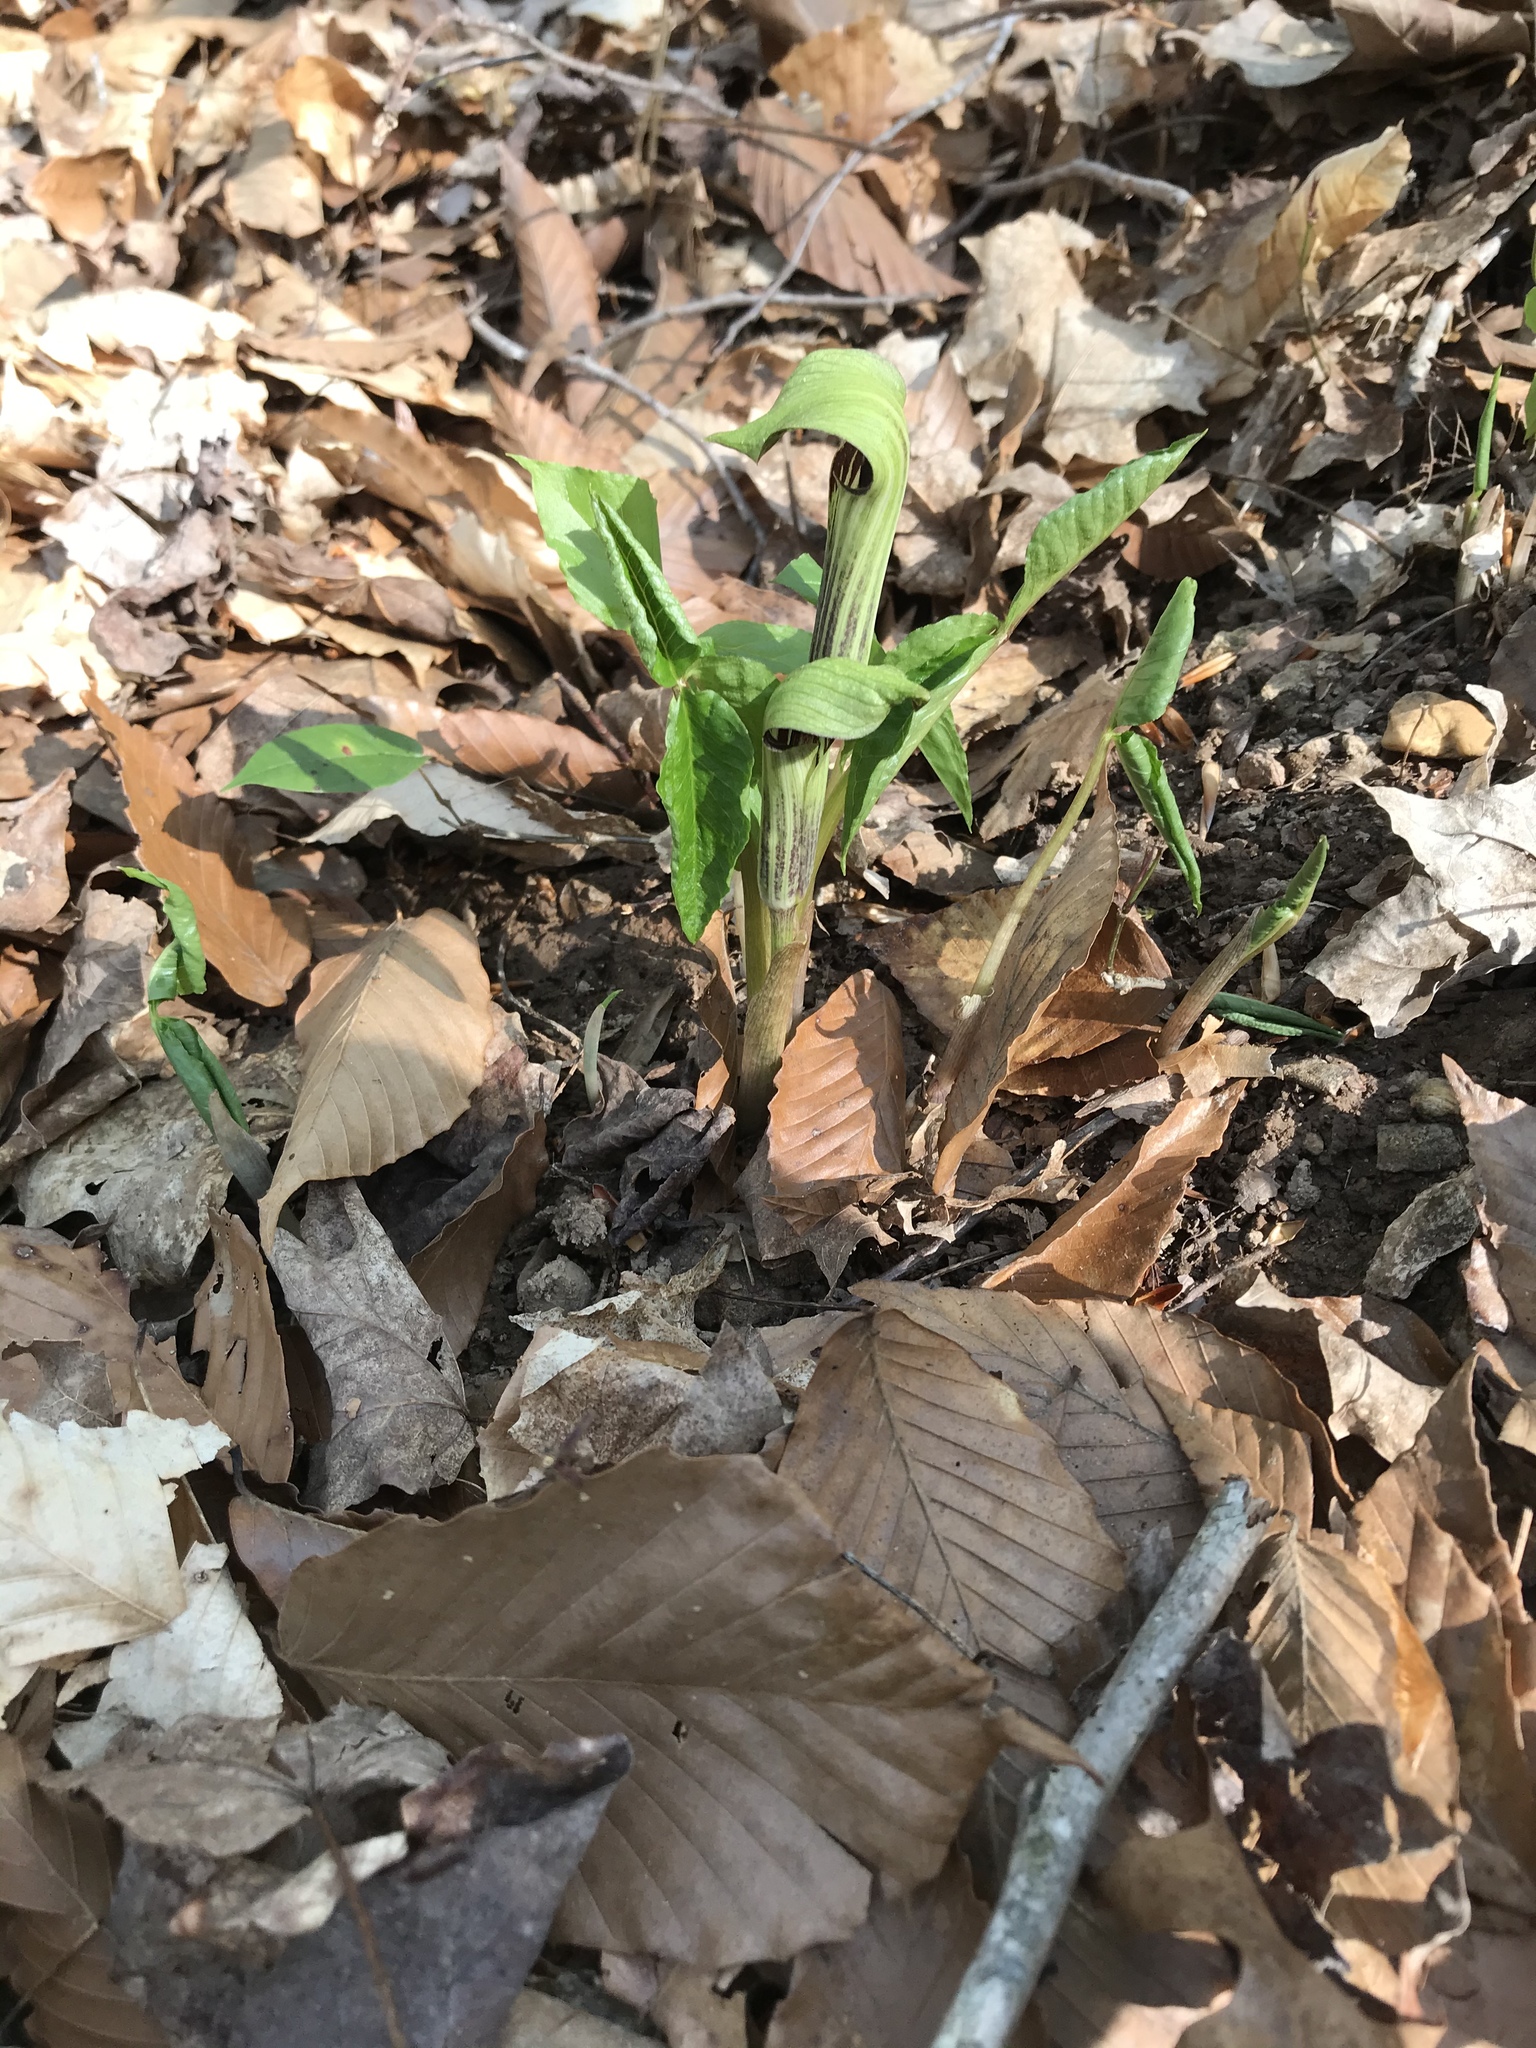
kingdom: Plantae
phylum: Tracheophyta
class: Liliopsida
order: Alismatales
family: Araceae
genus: Arisaema
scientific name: Arisaema triphyllum
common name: Jack-in-the-pulpit
